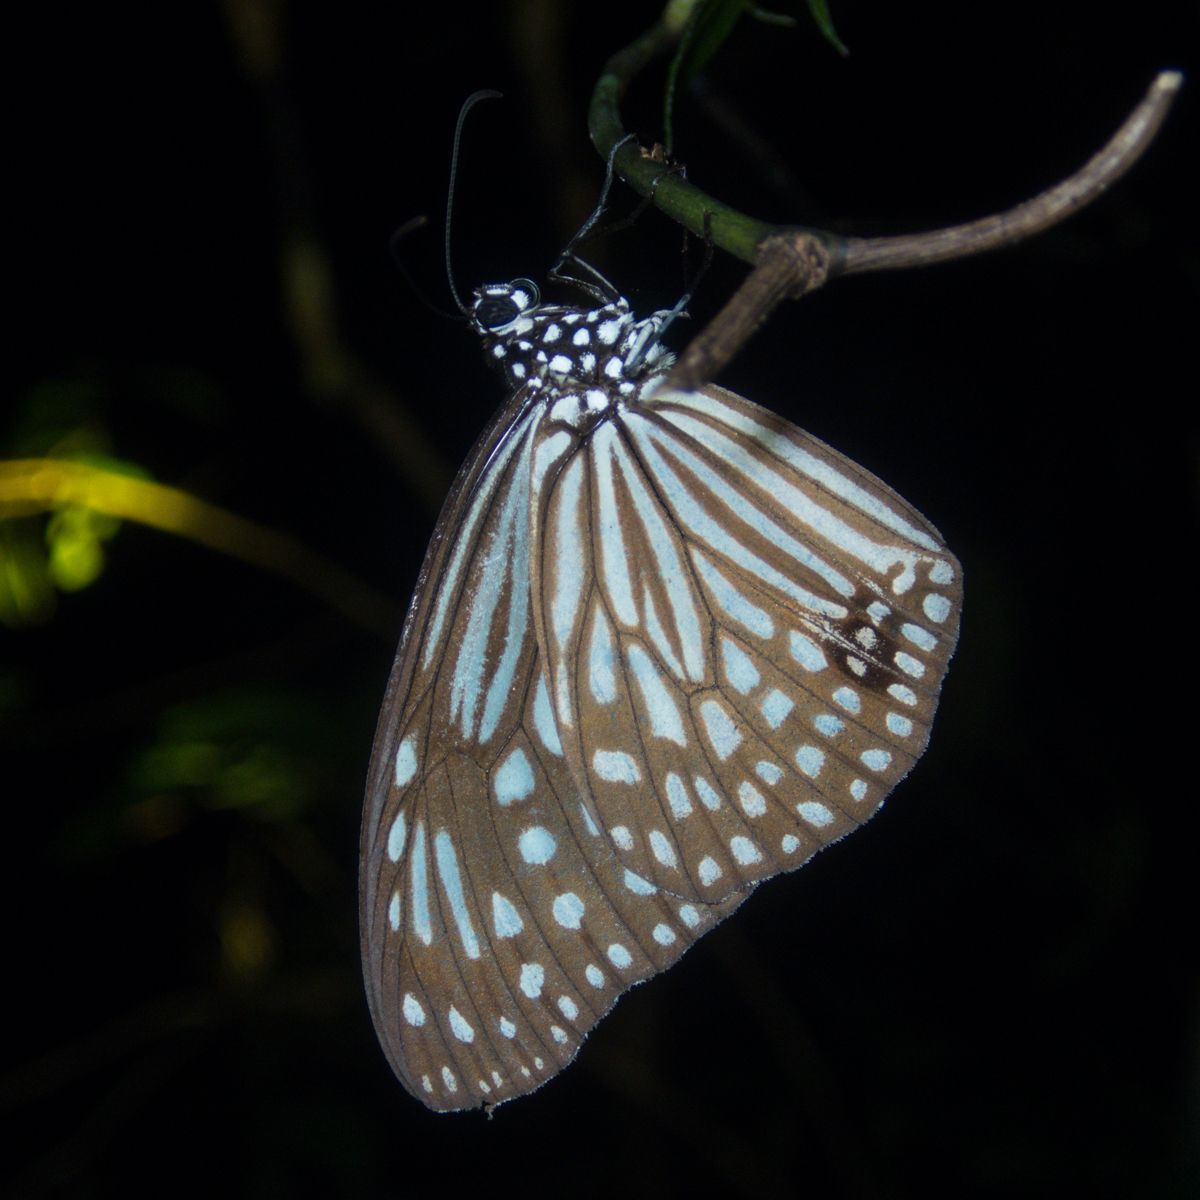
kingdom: Animalia
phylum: Arthropoda
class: Insecta
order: Lepidoptera
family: Nymphalidae
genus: Parantica
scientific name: Parantica agleoides
